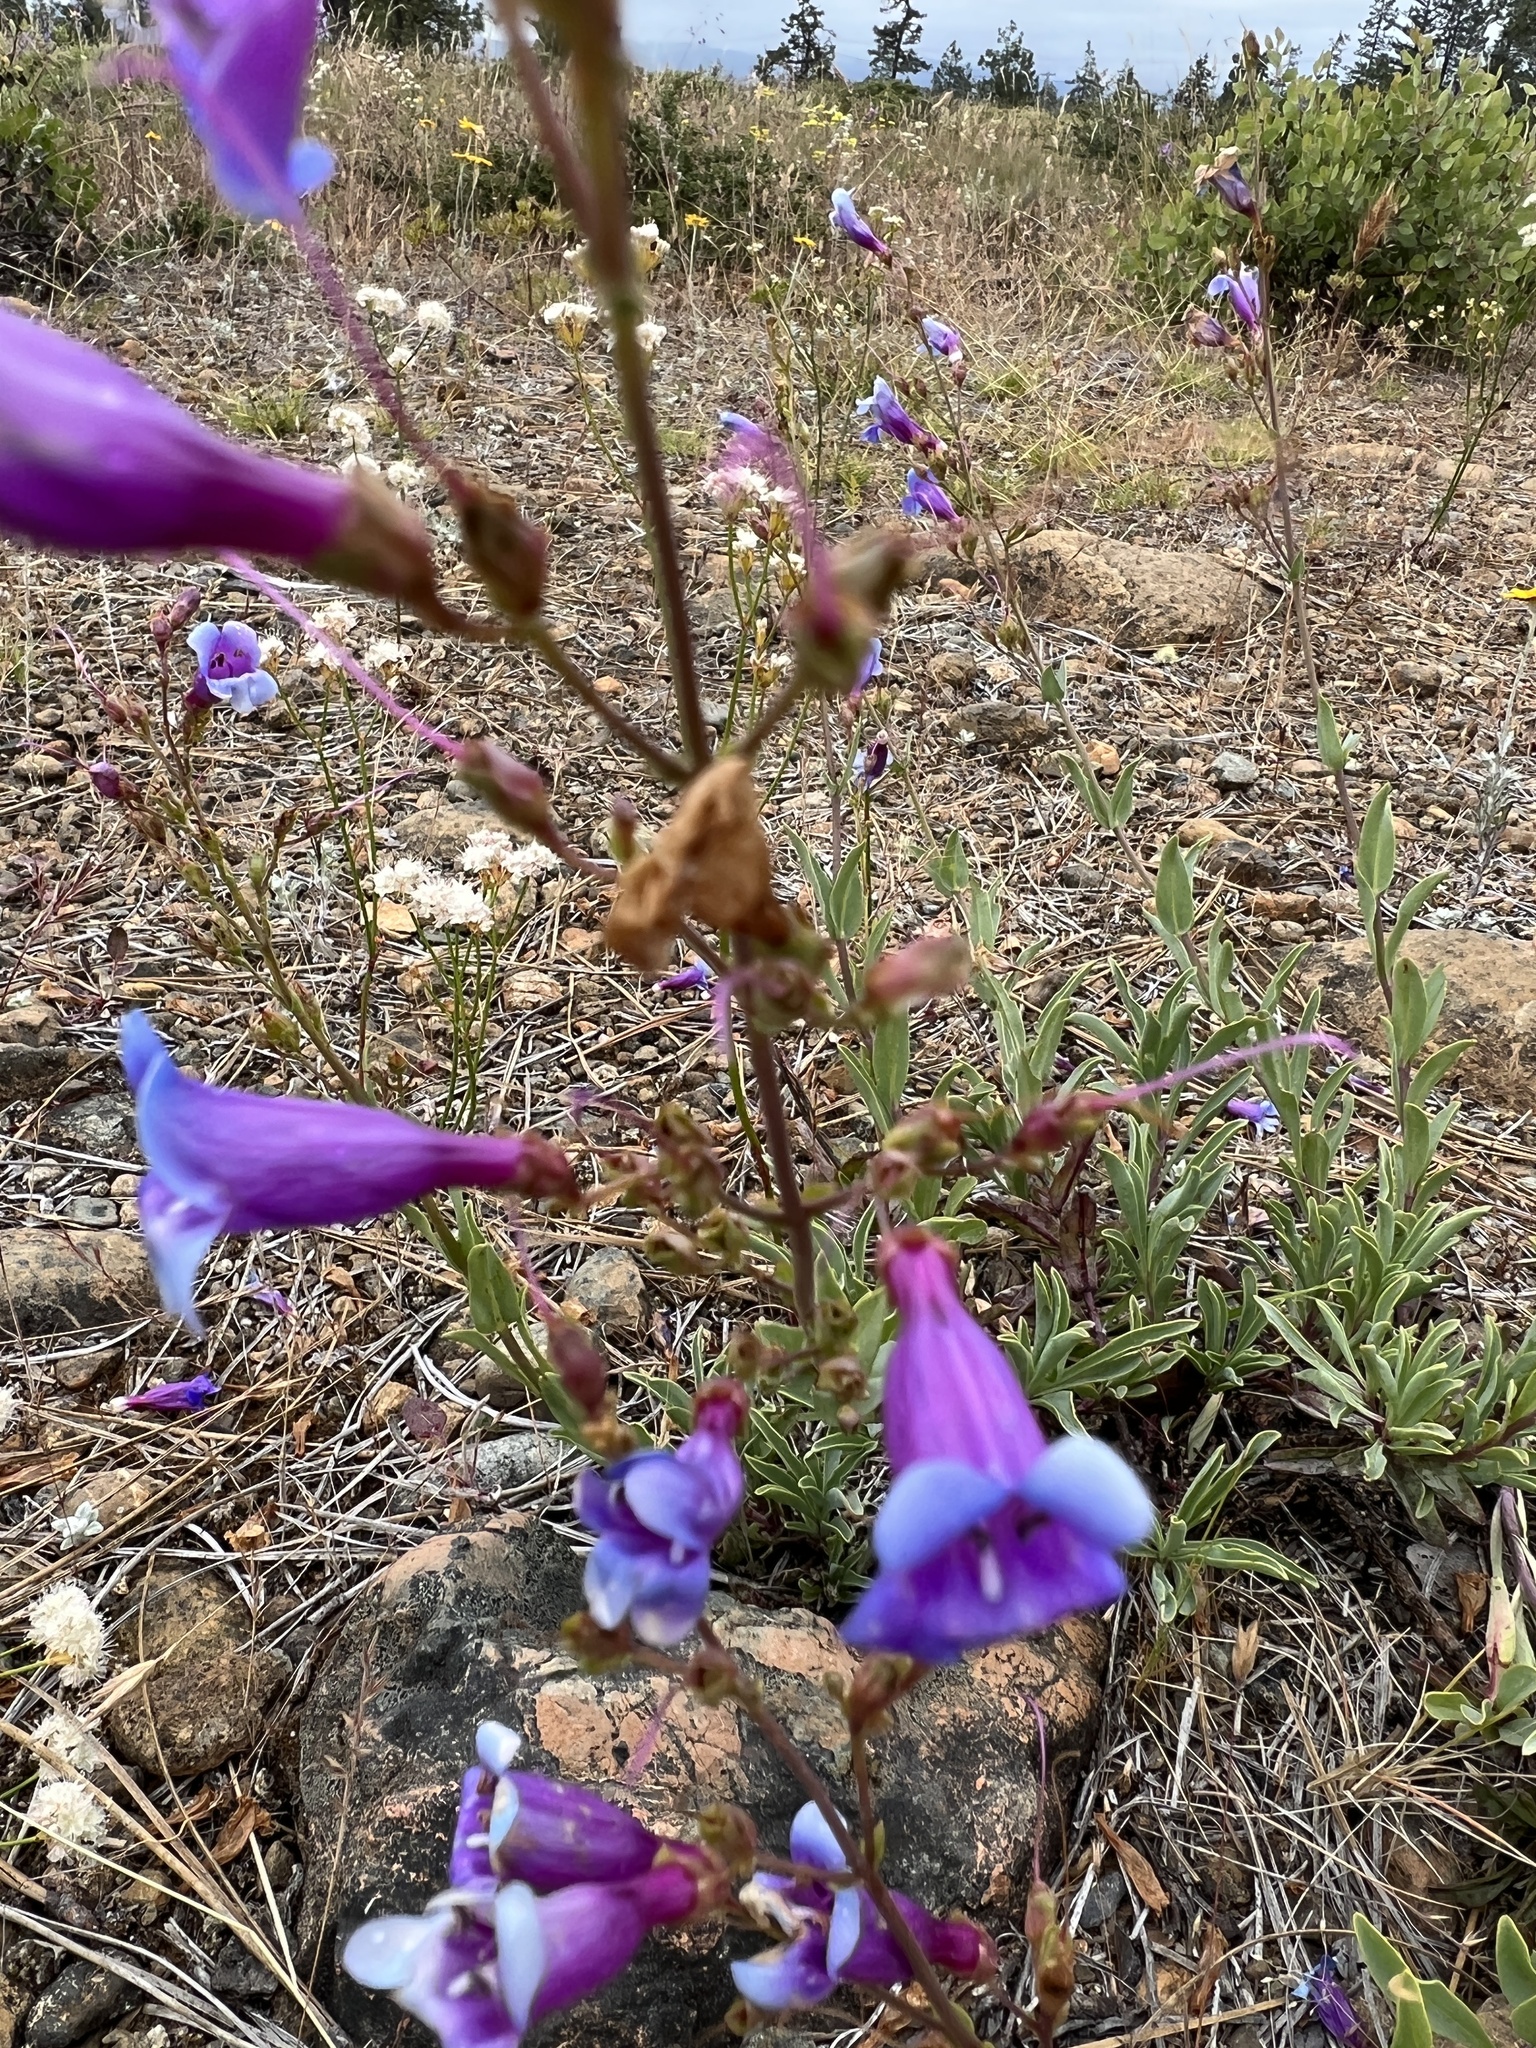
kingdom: Plantae
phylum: Tracheophyta
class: Magnoliopsida
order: Lamiales
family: Plantaginaceae
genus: Penstemon
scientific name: Penstemon azureus
